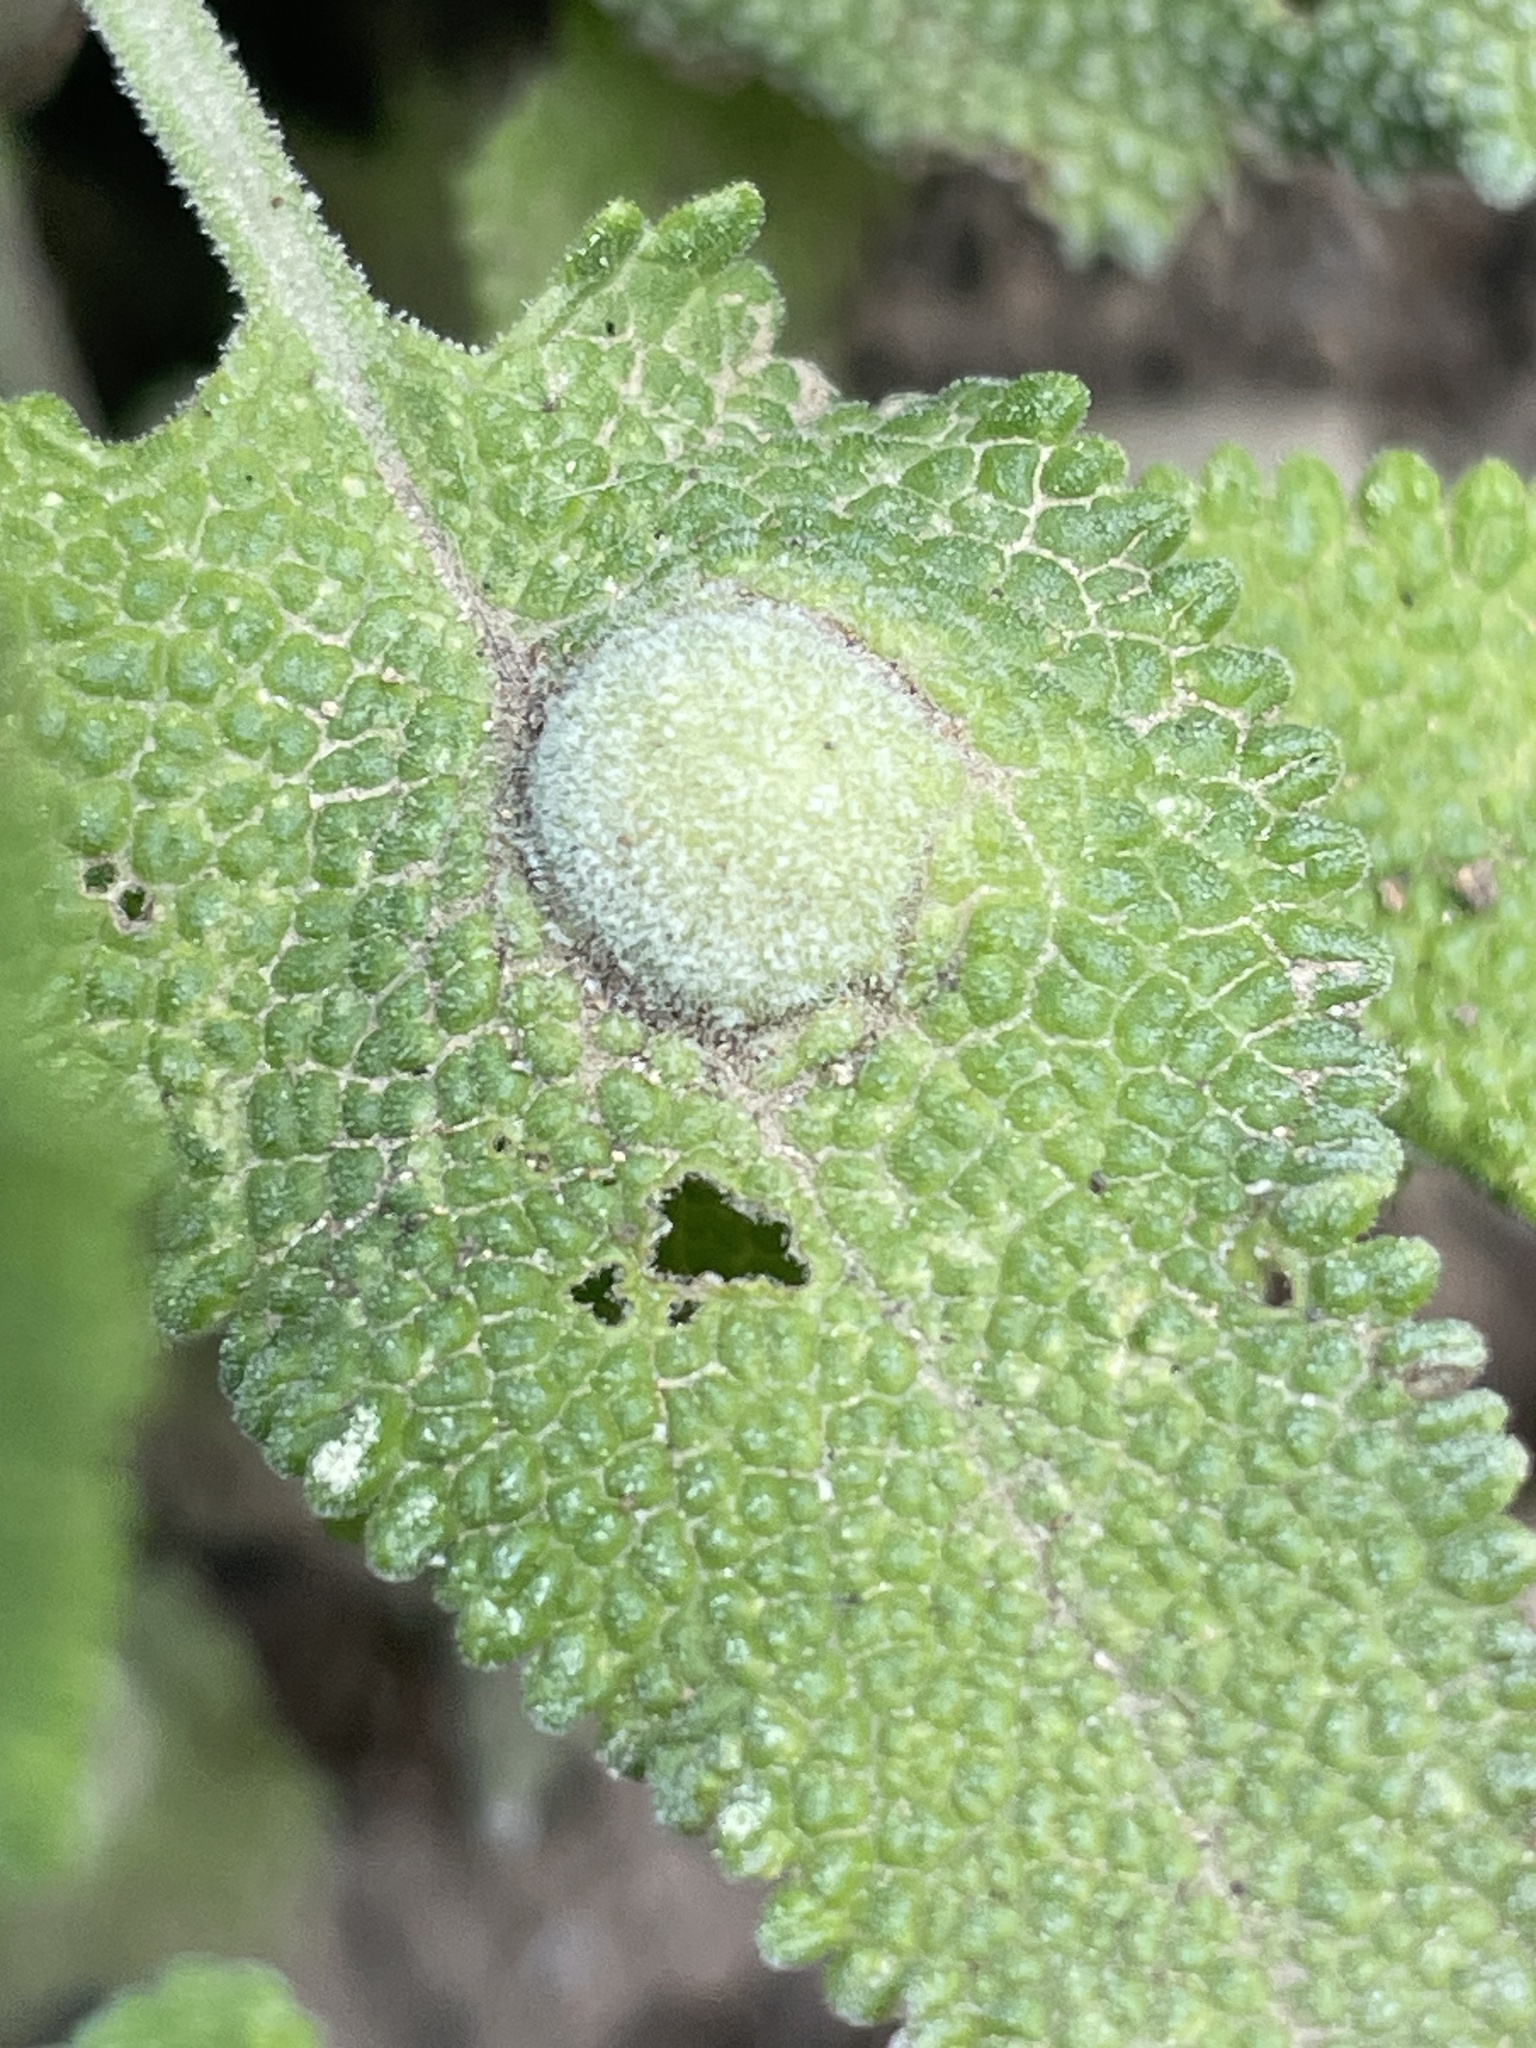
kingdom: Animalia
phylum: Arthropoda
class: Insecta
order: Diptera
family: Cecidomyiidae
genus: Rhopalomyia
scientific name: Rhopalomyia audibertiae
